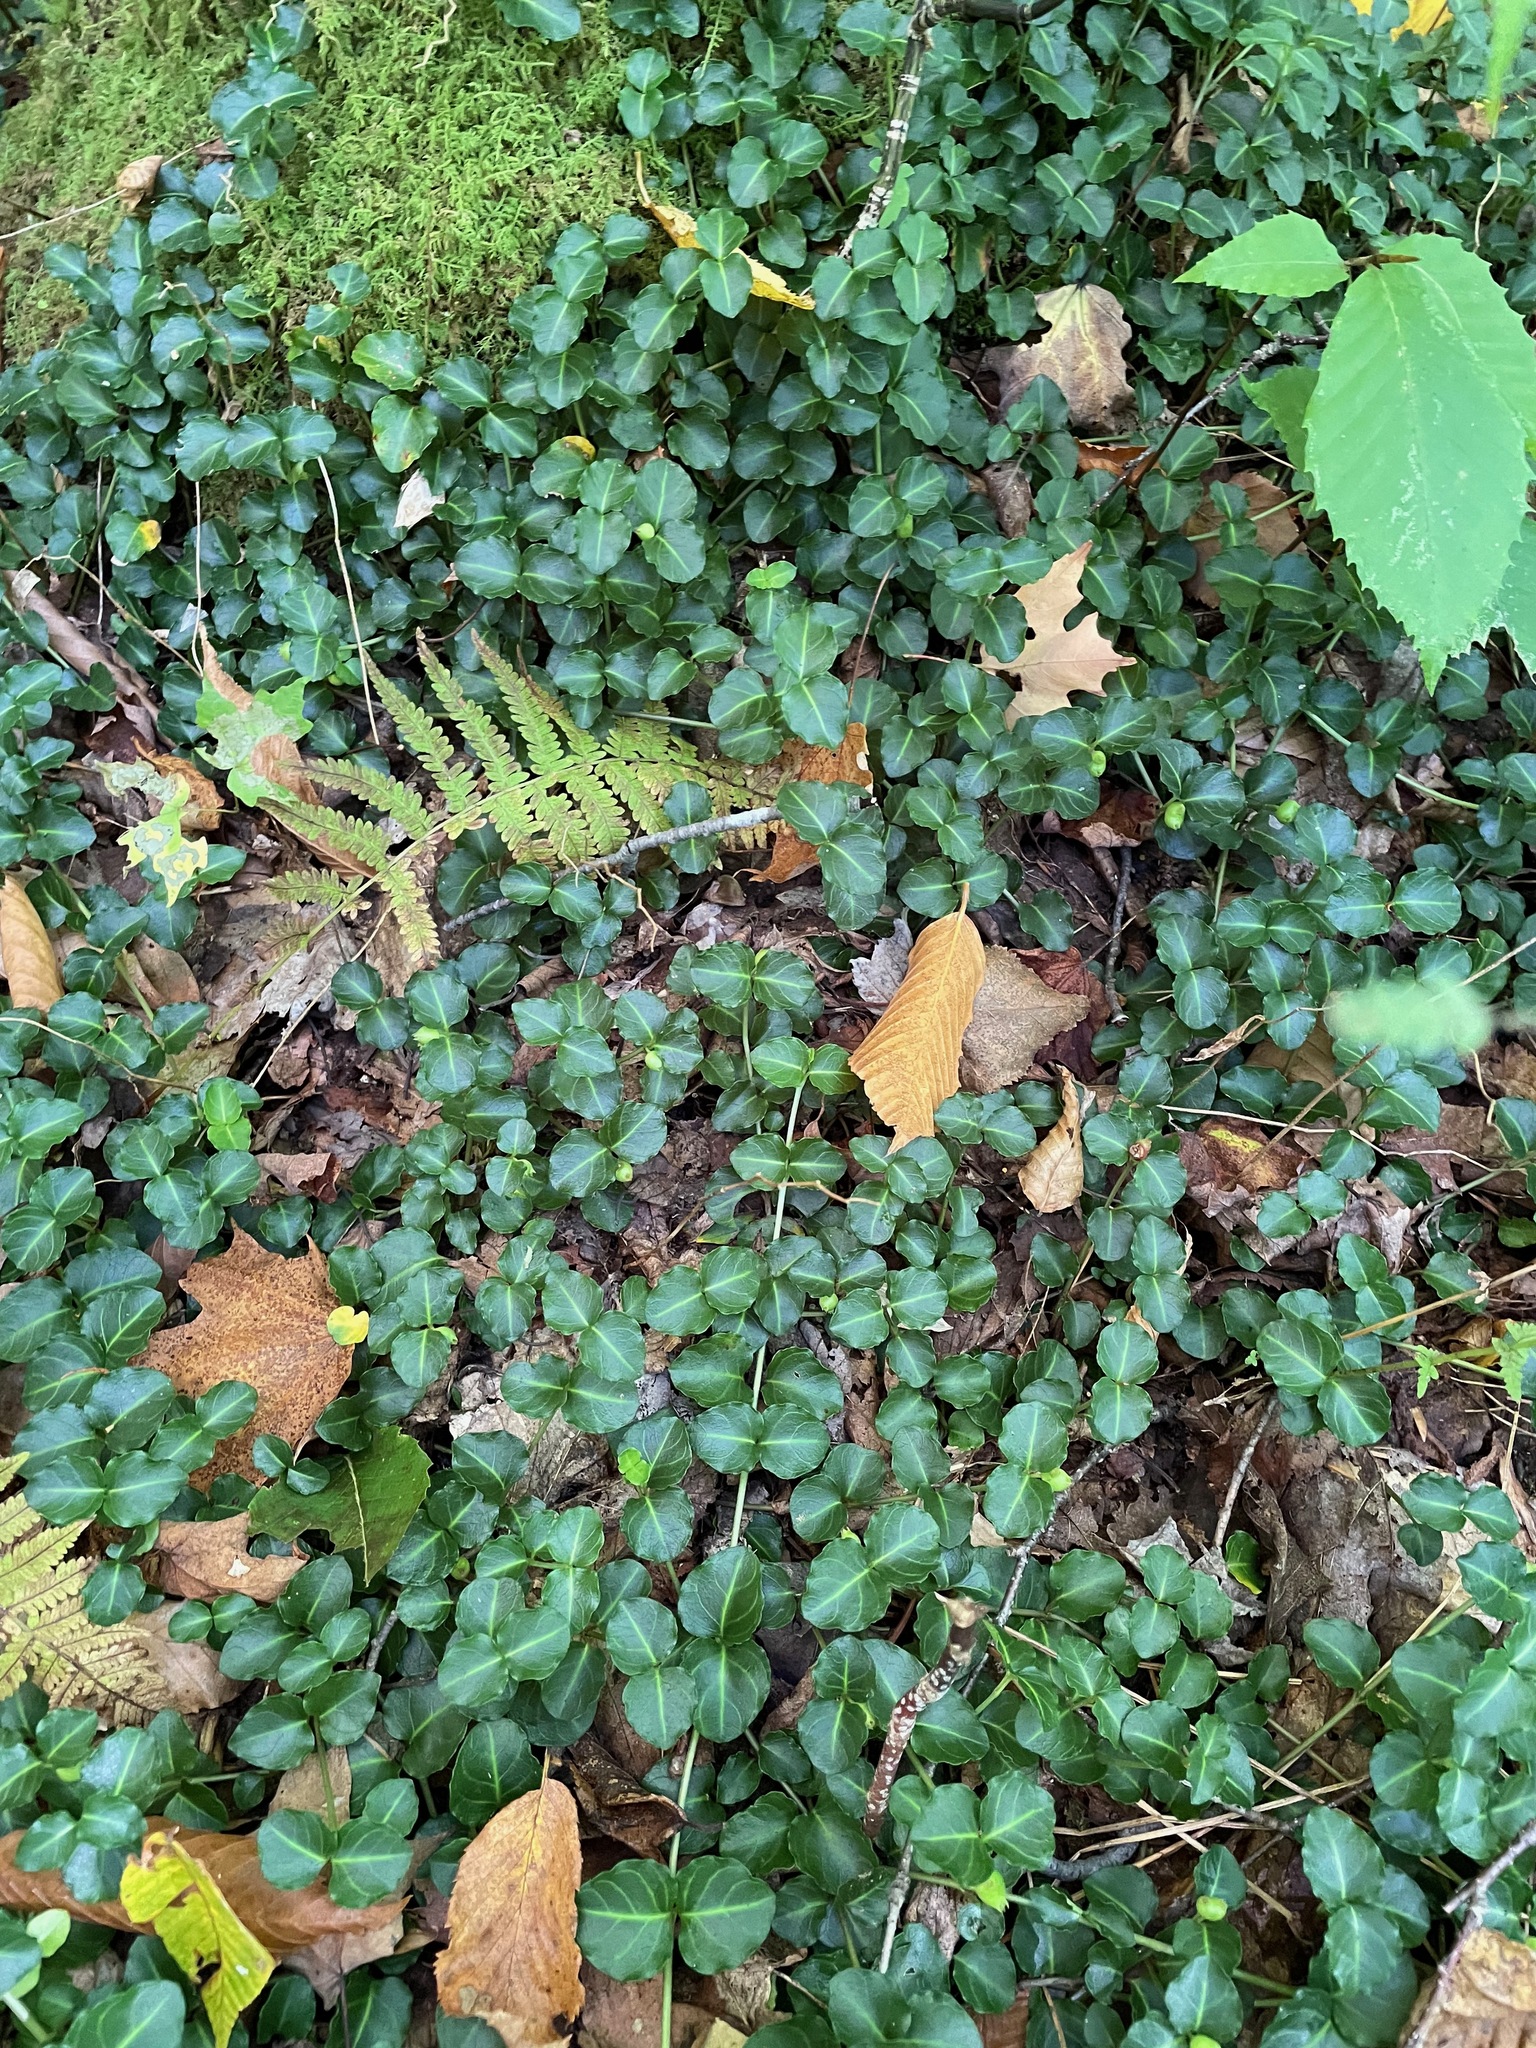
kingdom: Plantae
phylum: Tracheophyta
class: Magnoliopsida
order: Gentianales
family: Rubiaceae
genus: Mitchella
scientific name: Mitchella repens
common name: Partridge-berry
